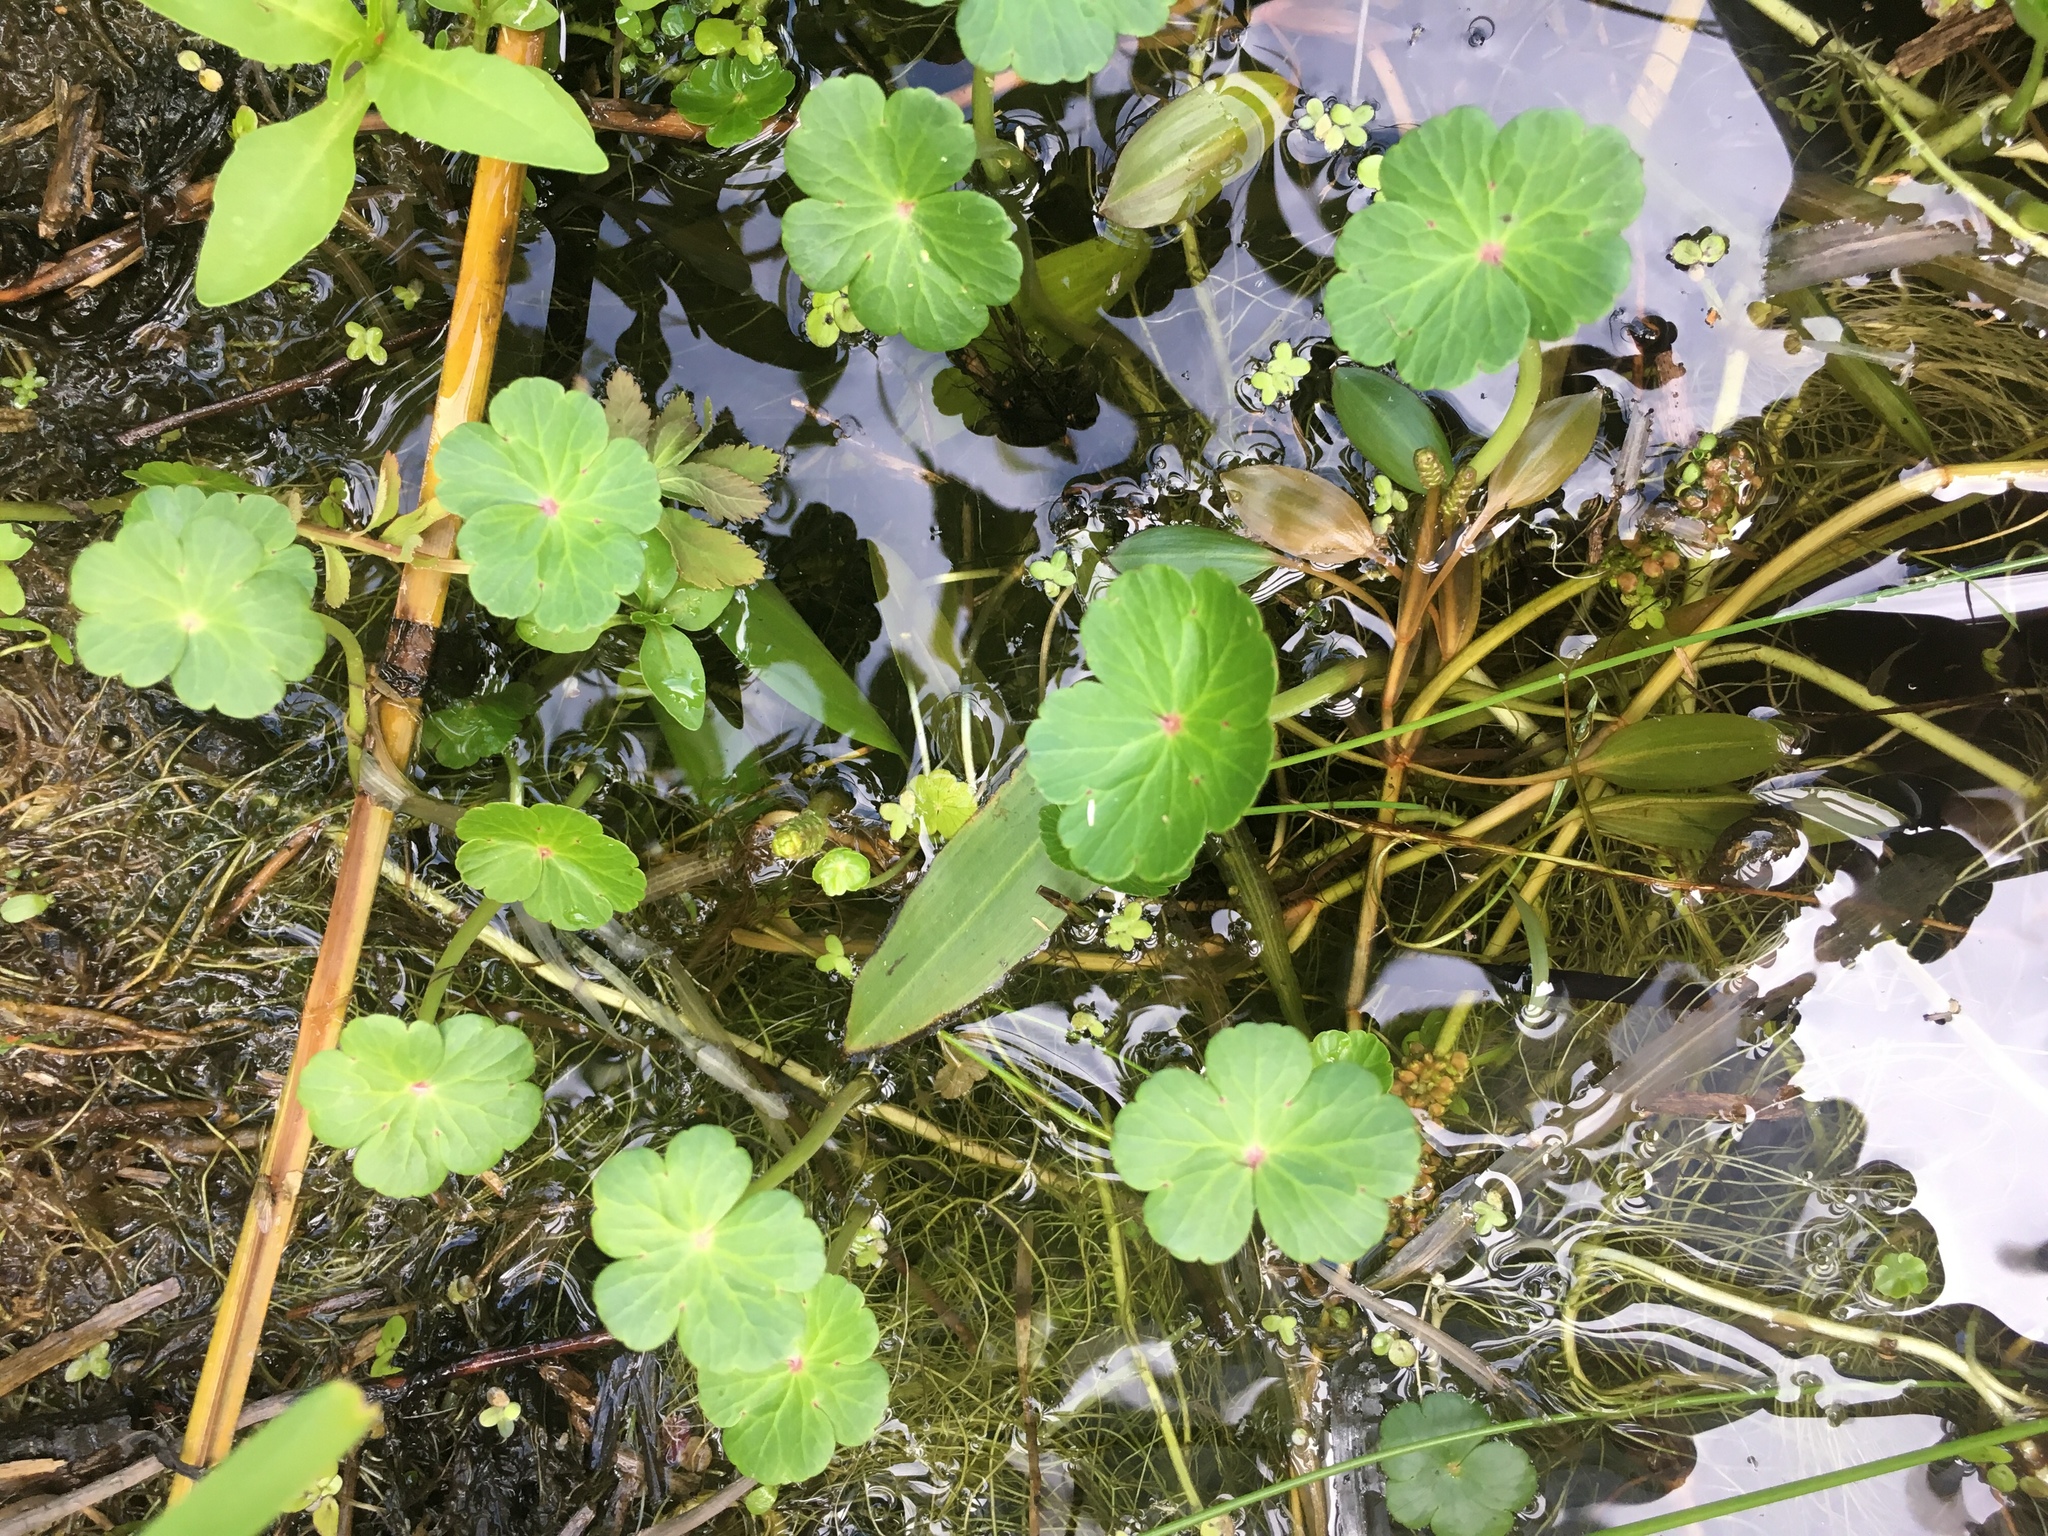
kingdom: Plantae
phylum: Tracheophyta
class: Magnoliopsida
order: Apiales
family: Araliaceae
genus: Hydrocotyle
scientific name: Hydrocotyle ranunculoides
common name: Floating pennywort
